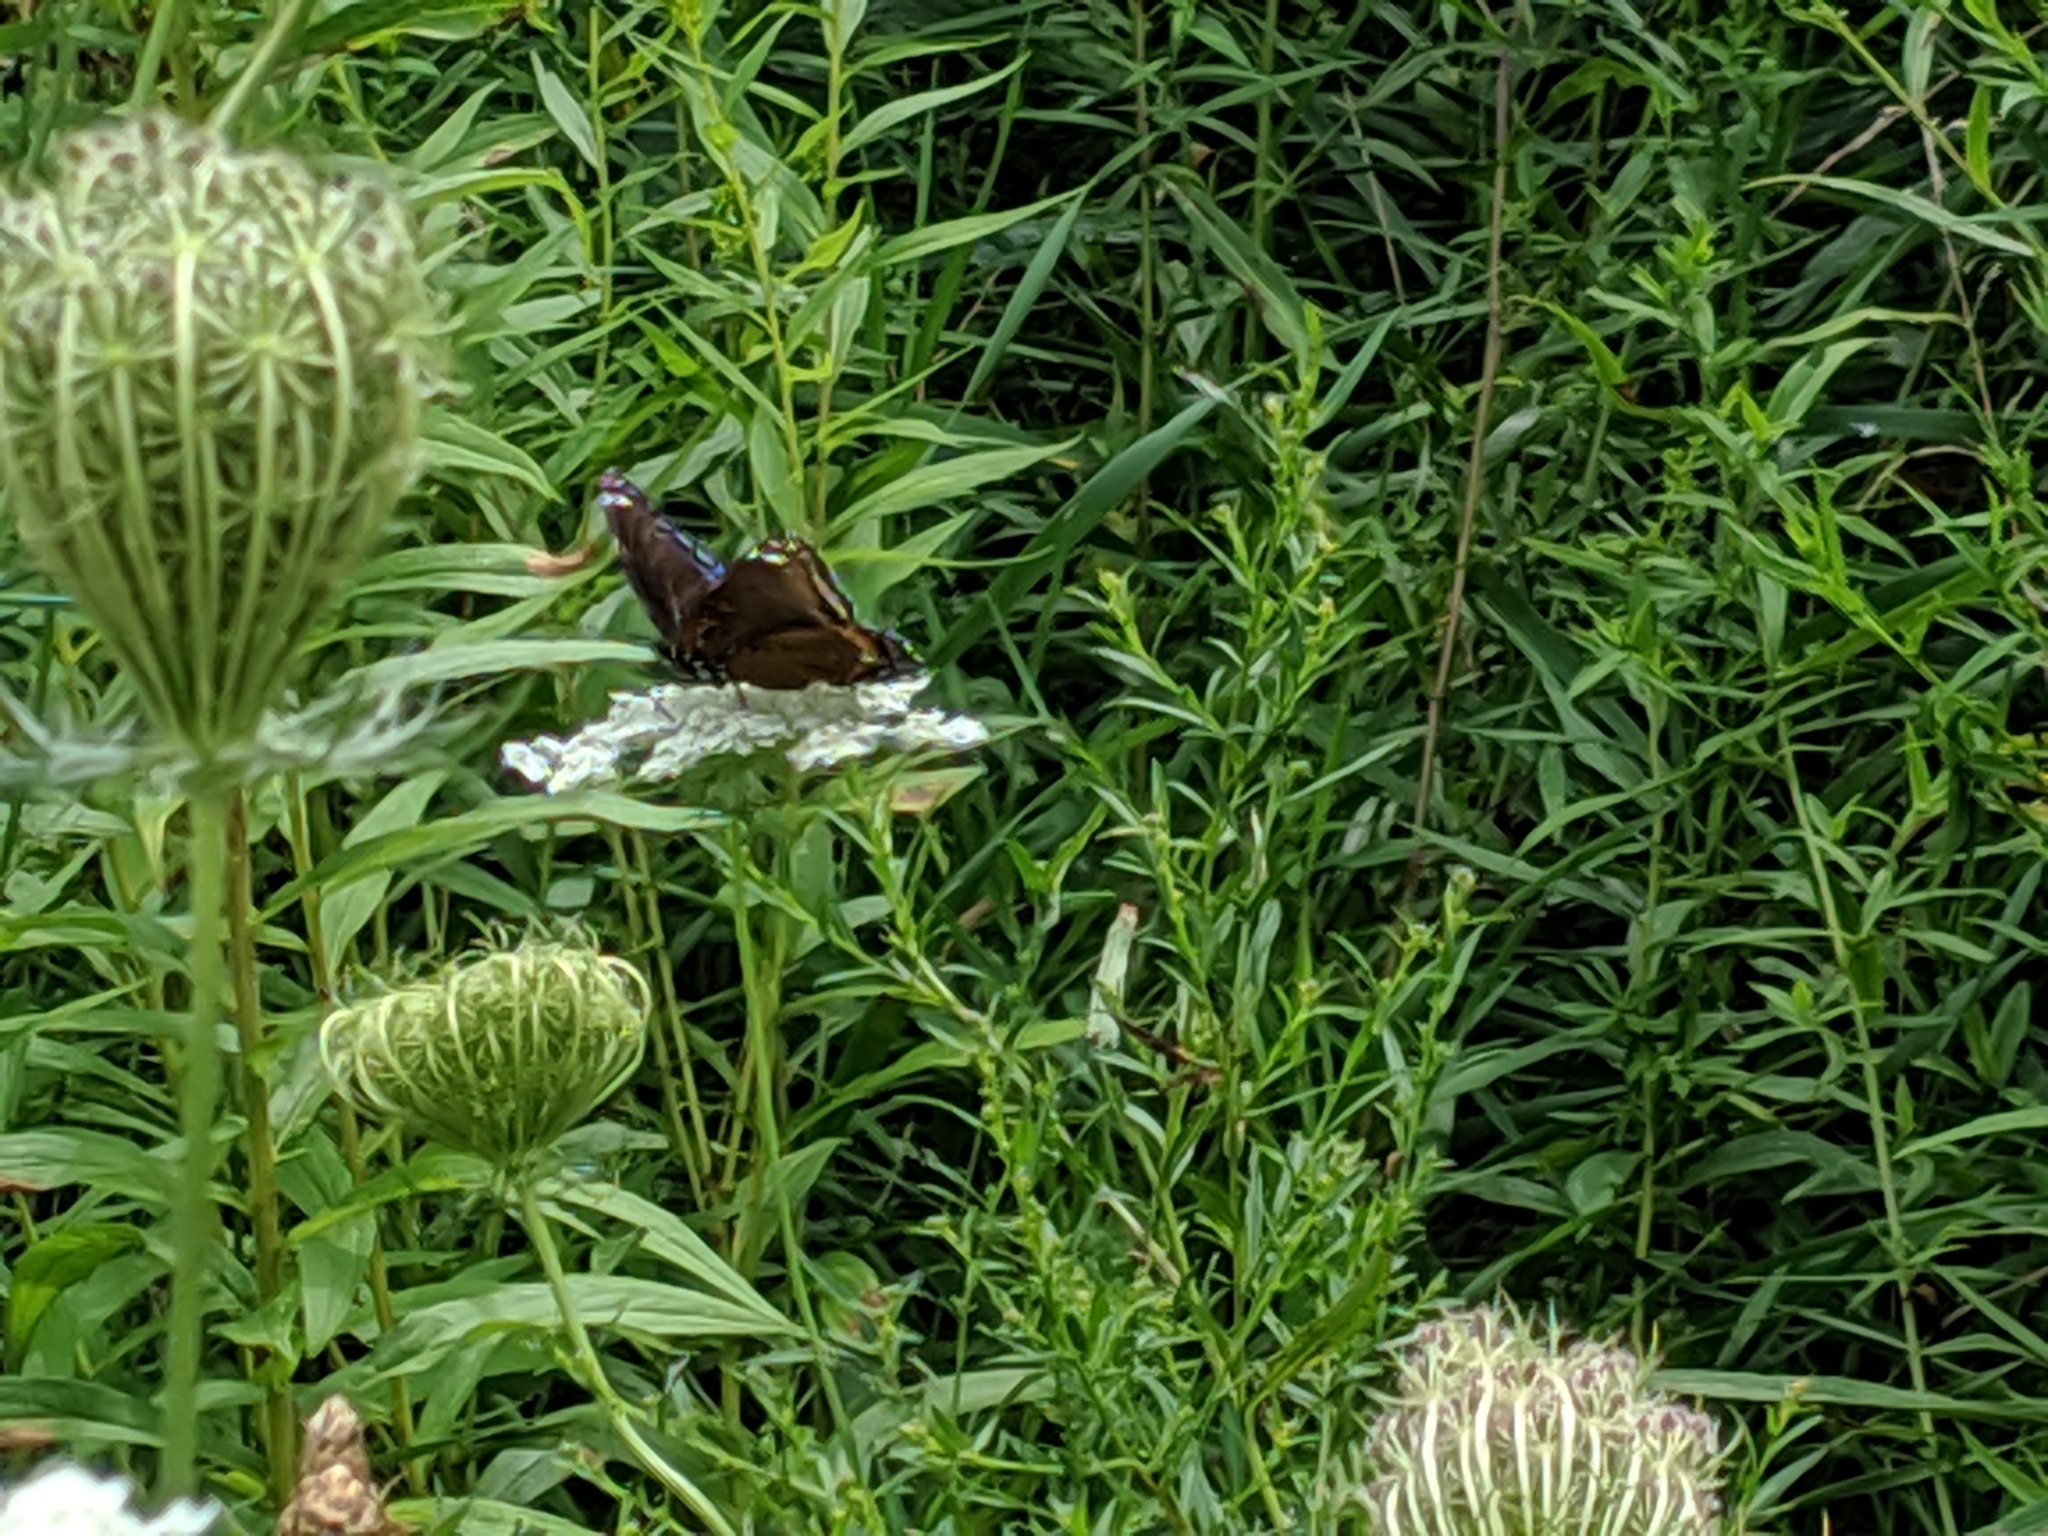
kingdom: Animalia
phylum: Arthropoda
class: Insecta
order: Lepidoptera
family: Nymphalidae
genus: Limenitis
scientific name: Limenitis astyanax
